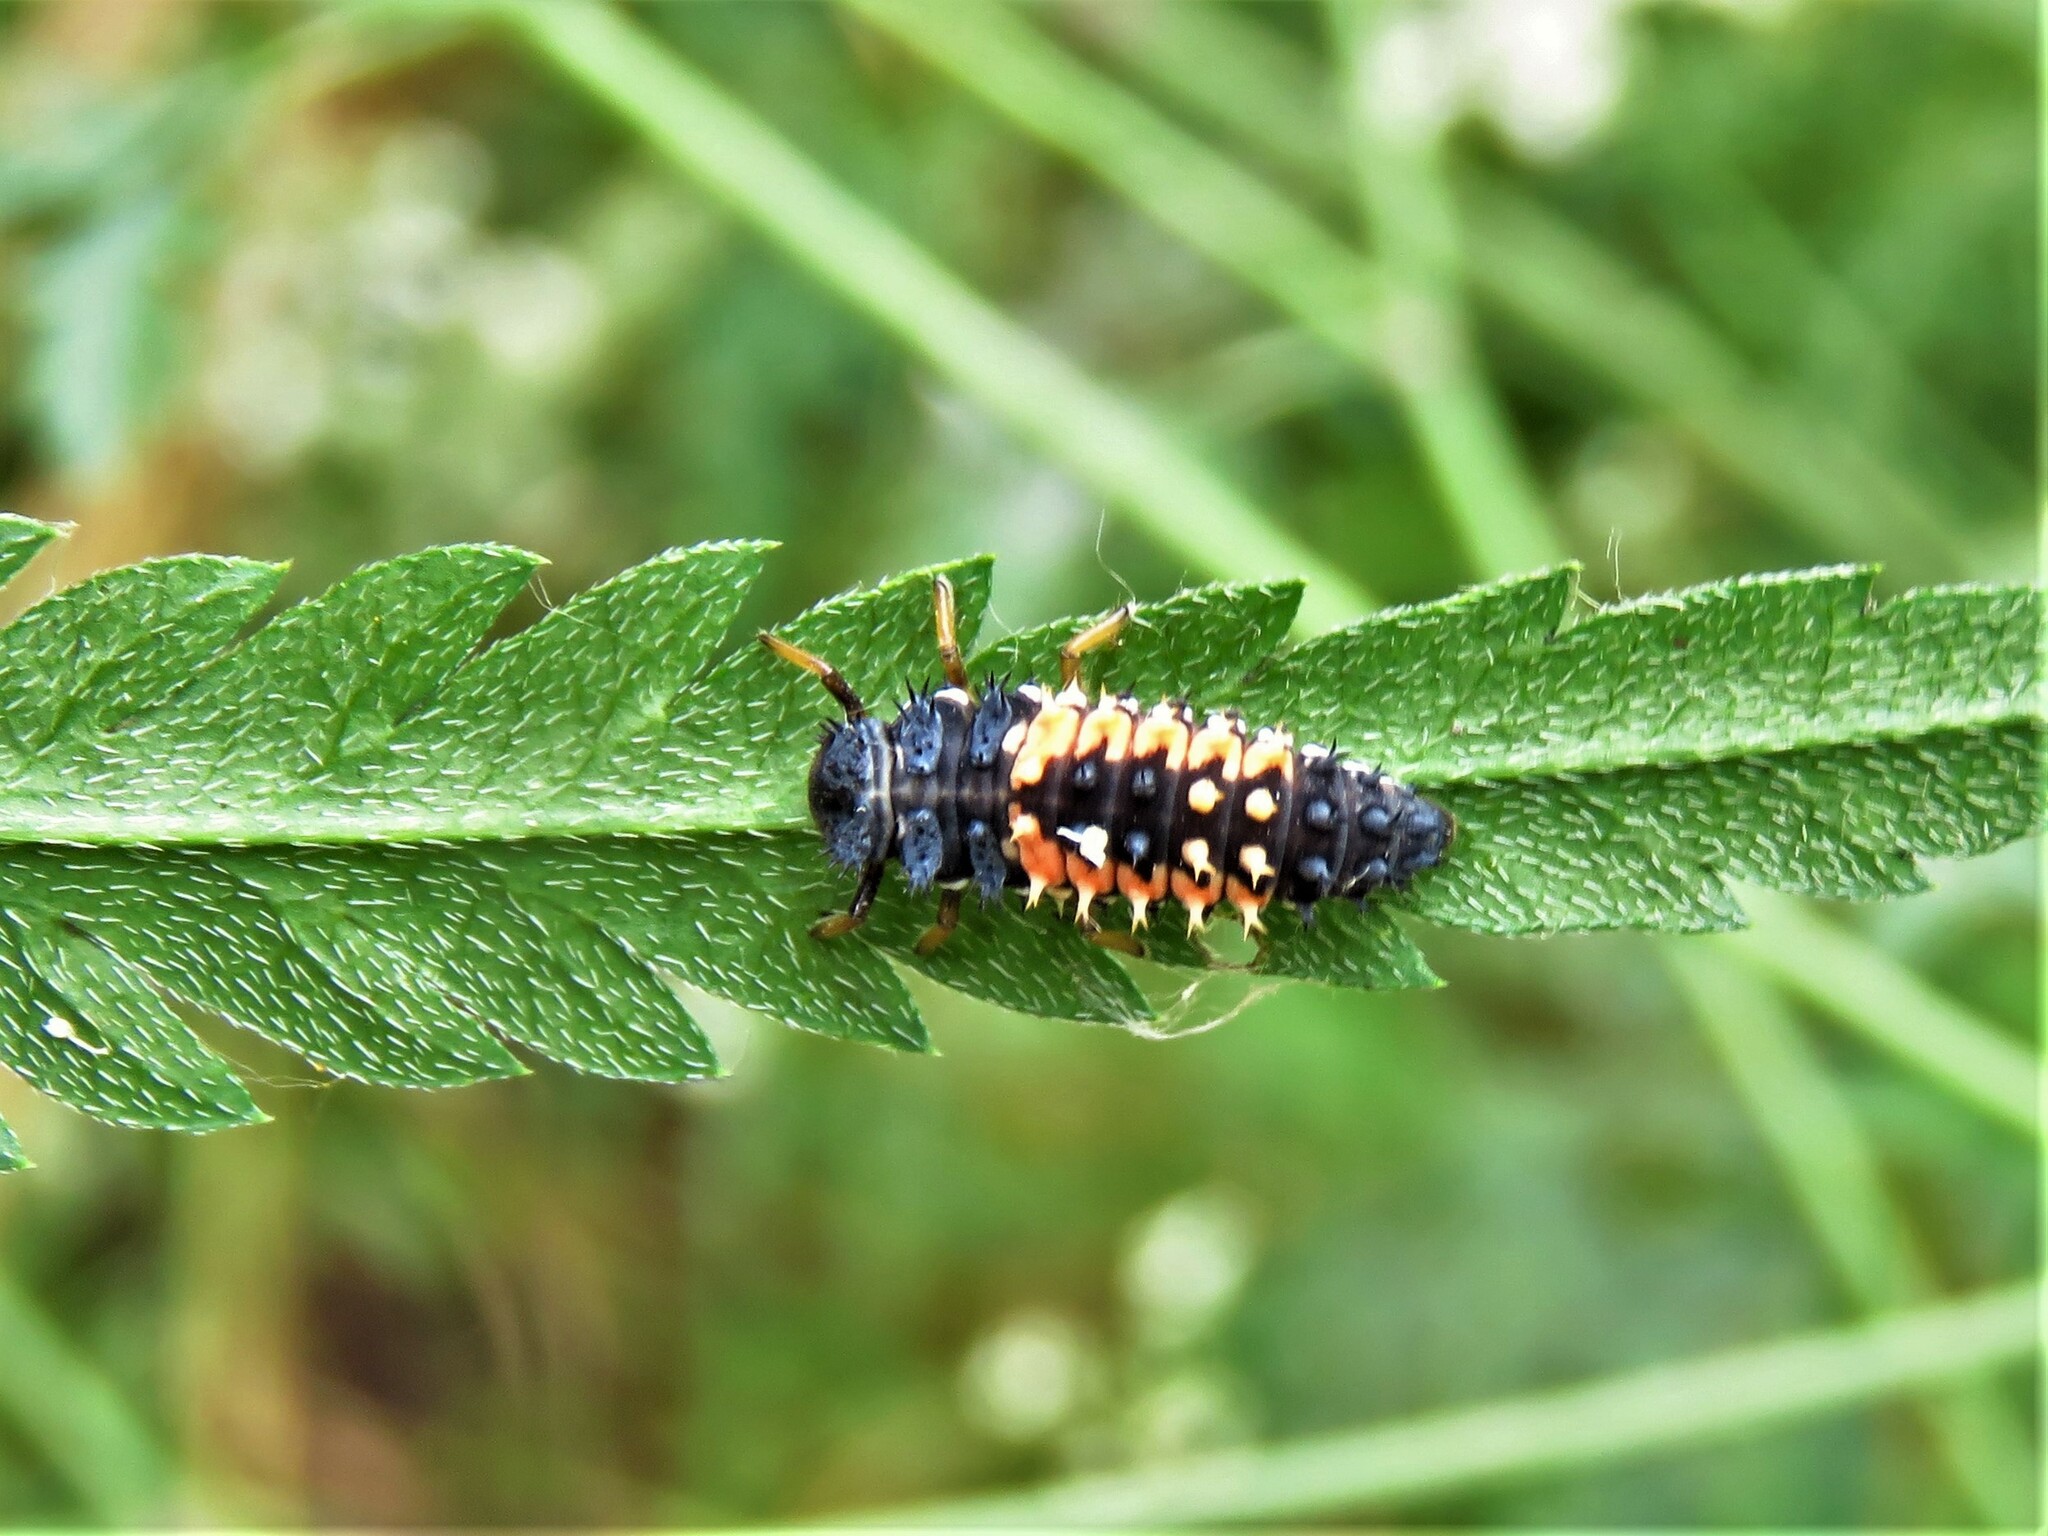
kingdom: Animalia
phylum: Arthropoda
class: Insecta
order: Coleoptera
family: Coccinellidae
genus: Harmonia
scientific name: Harmonia axyridis
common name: Harlequin ladybird
